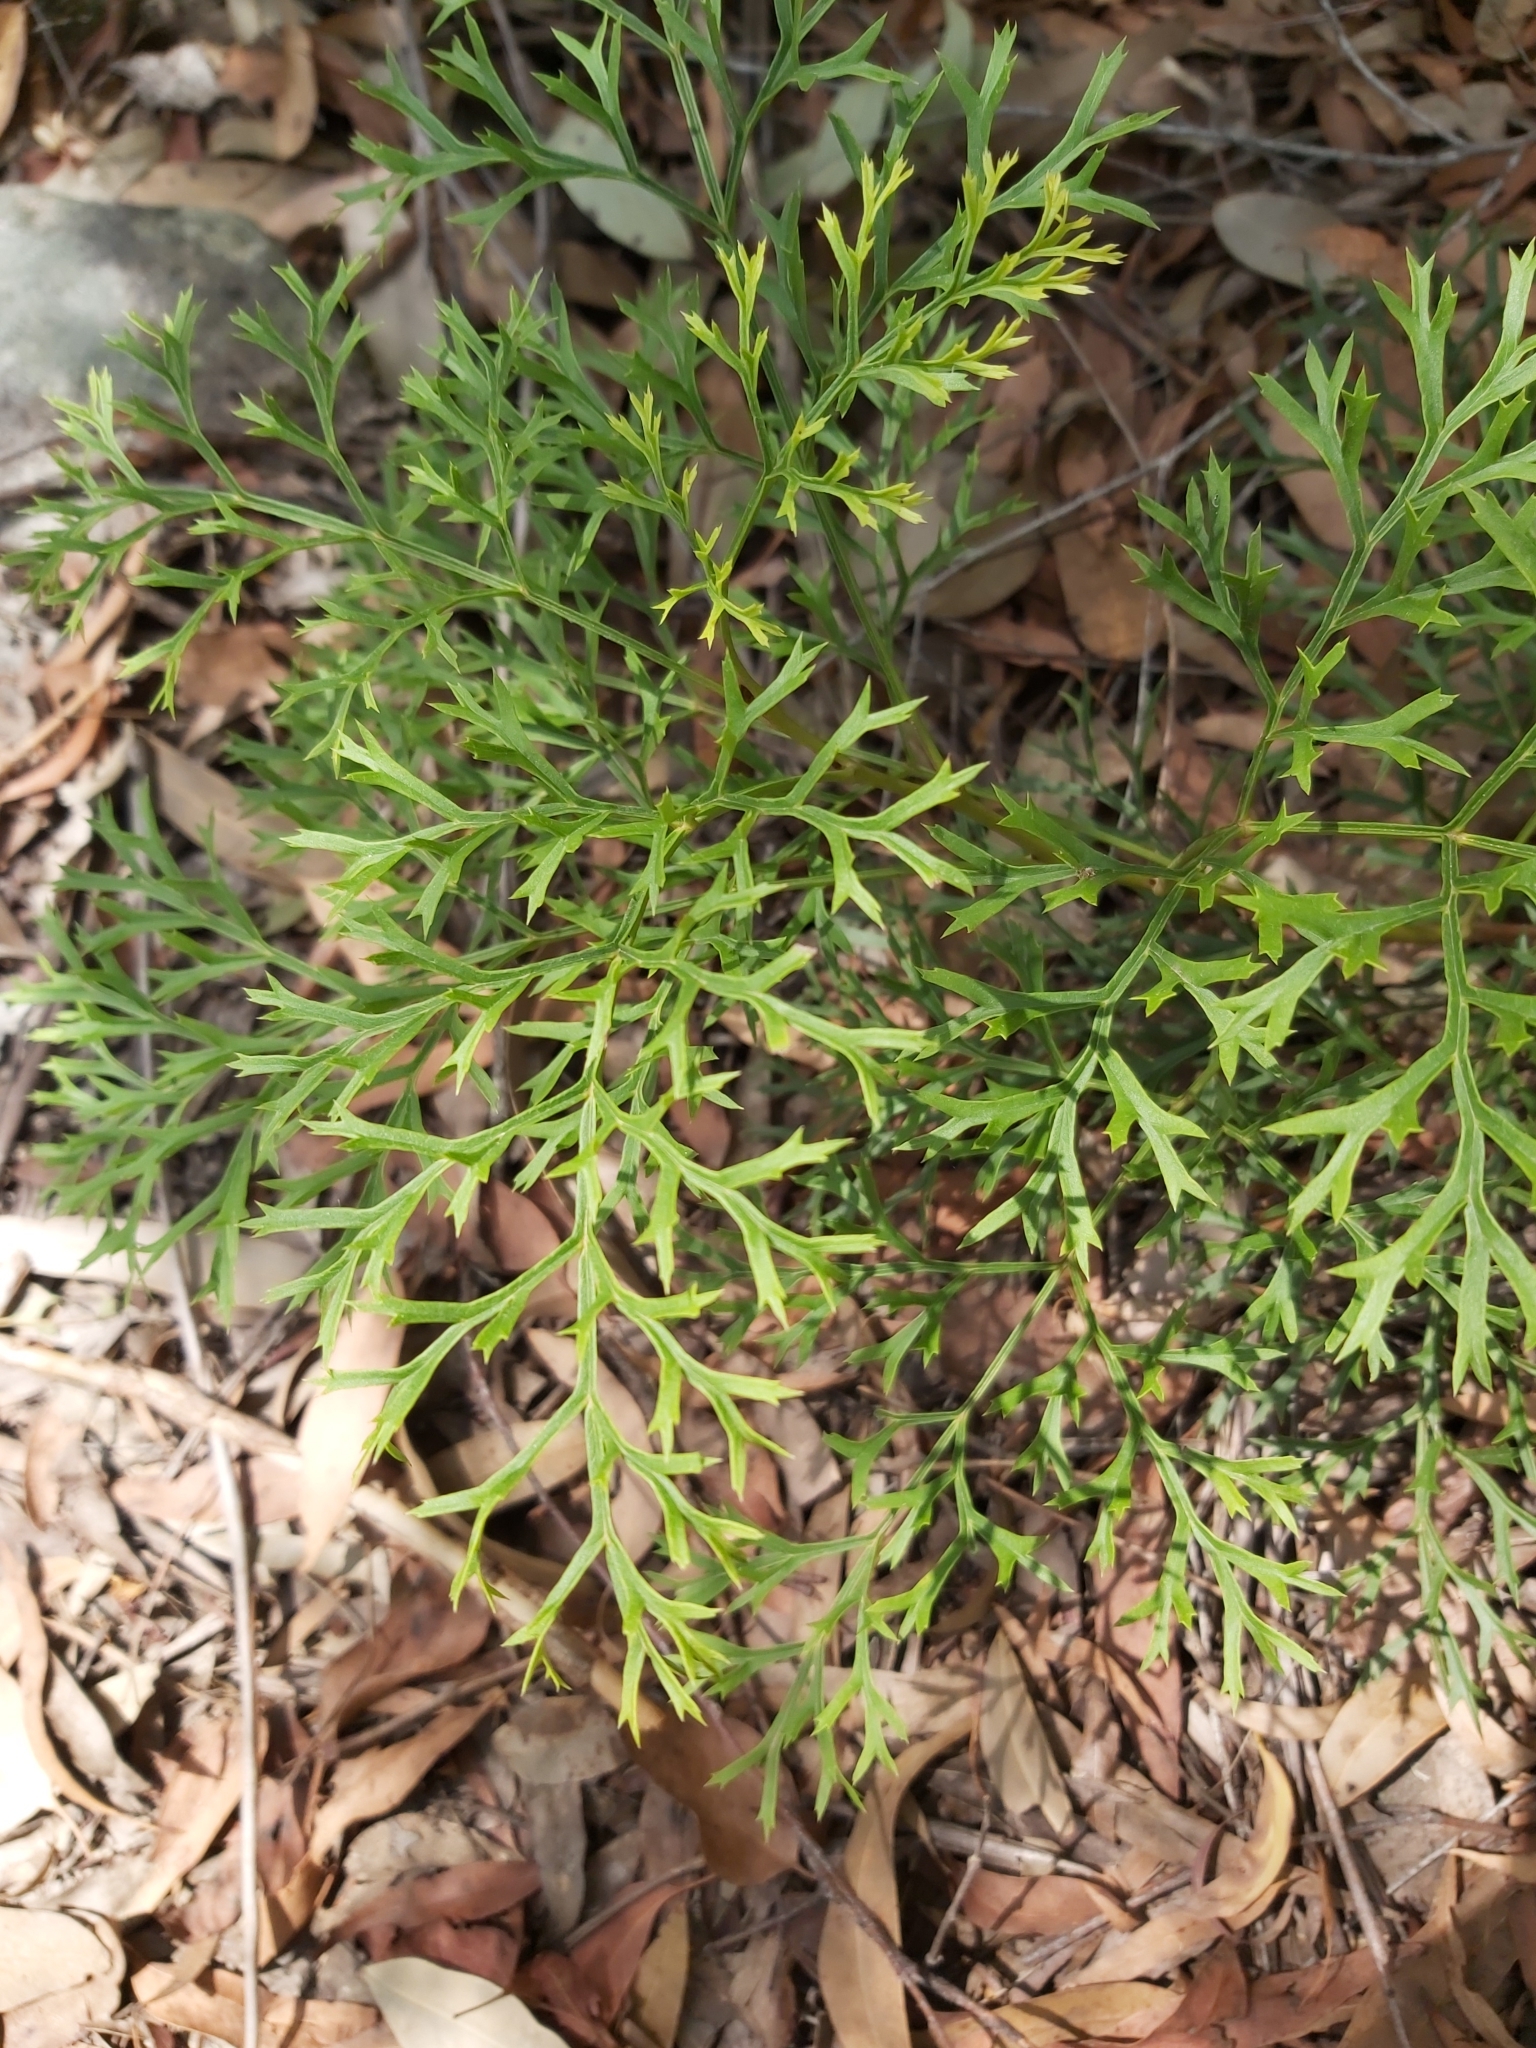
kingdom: Plantae
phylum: Tracheophyta
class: Magnoliopsida
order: Proteales
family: Proteaceae
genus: Lomatia
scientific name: Lomatia silaifolia
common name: Crinklebush
